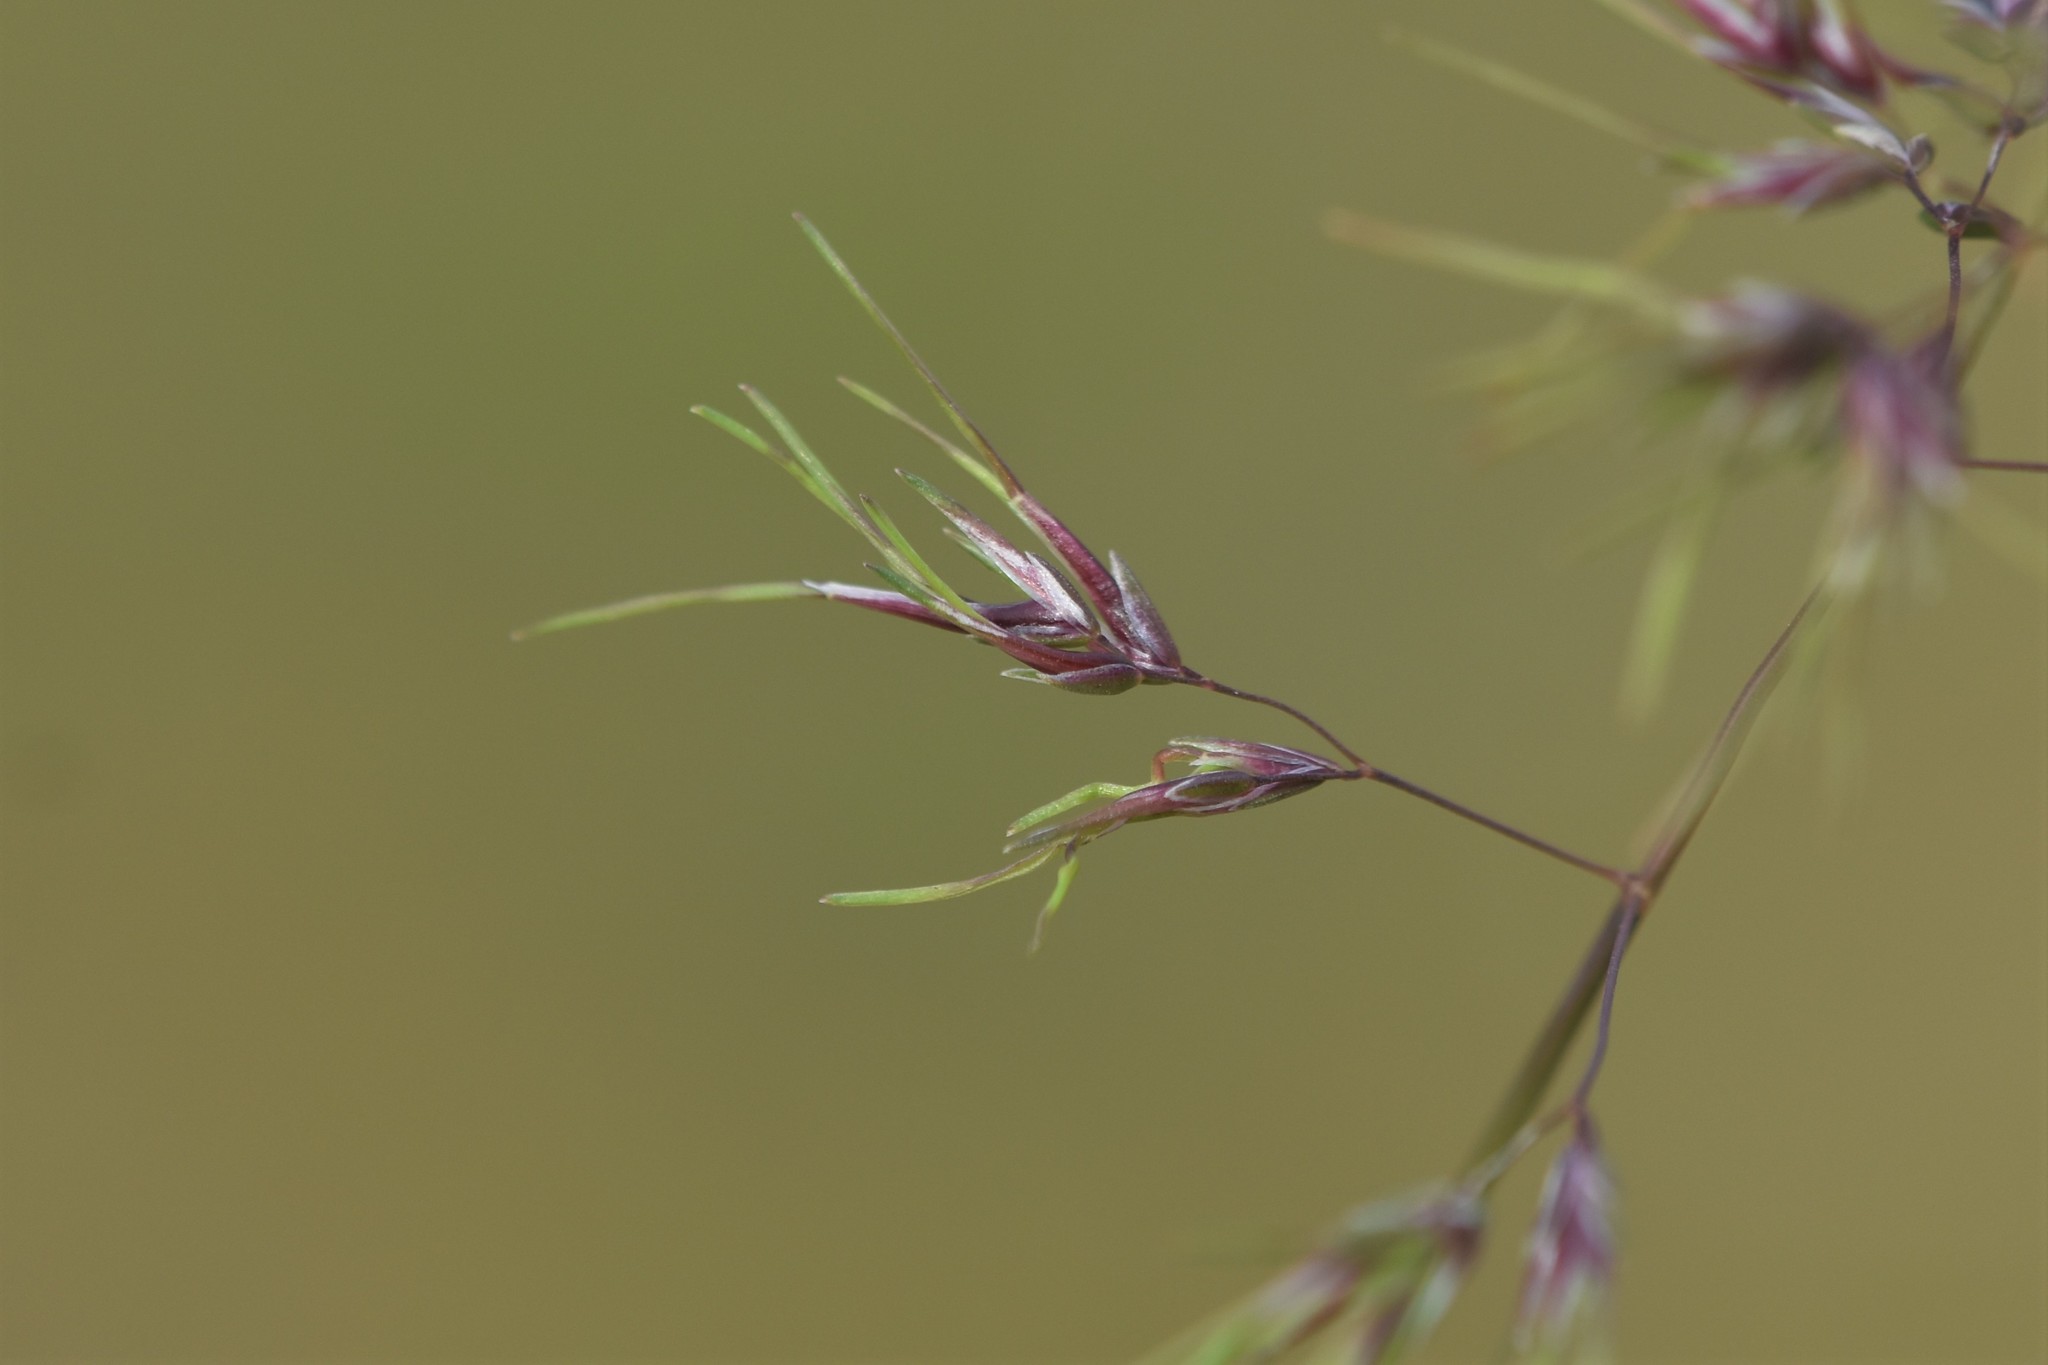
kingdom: Plantae
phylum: Tracheophyta
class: Liliopsida
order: Poales
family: Poaceae
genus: Poa
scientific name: Poa bulbosa
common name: Bulbous bluegrass
